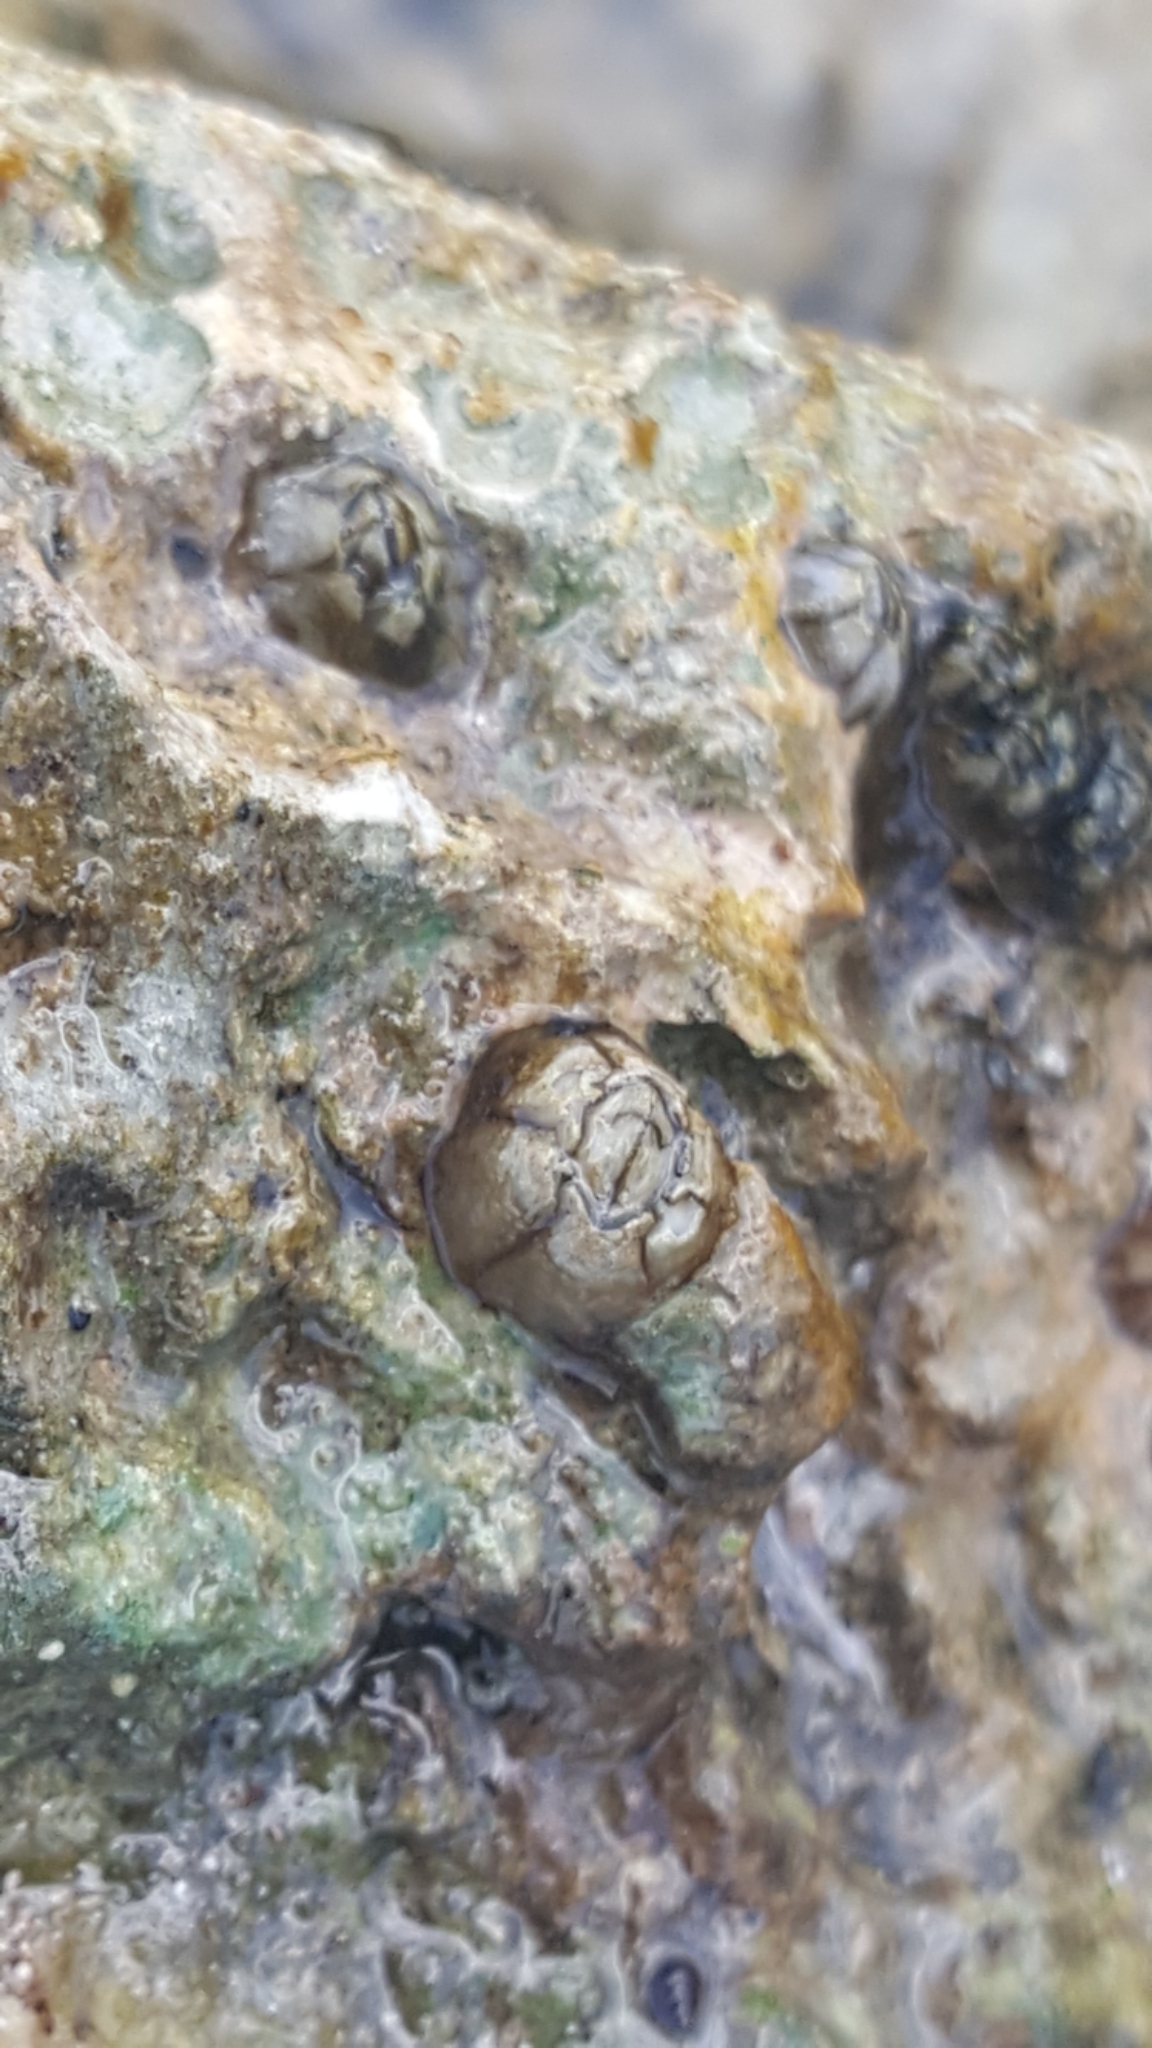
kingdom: Animalia
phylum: Arthropoda
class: Maxillopoda
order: Sessilia
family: Chthamalidae
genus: Chthamalus
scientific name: Chthamalus fragilis
